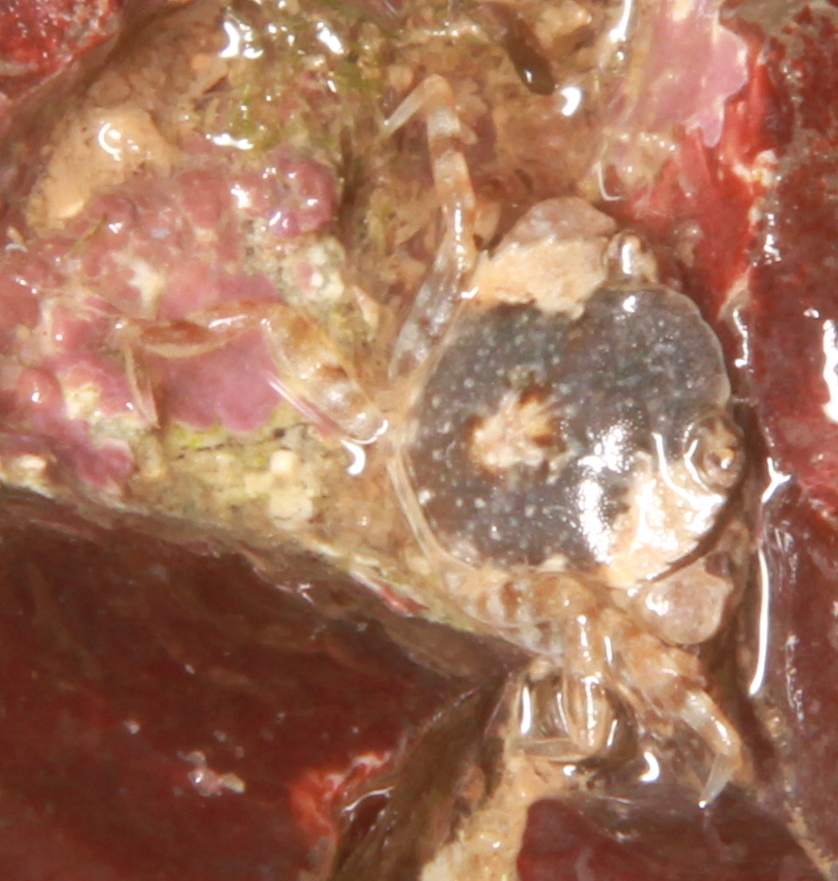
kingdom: Animalia
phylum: Arthropoda
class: Malacostraca
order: Decapoda
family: Carcinidae
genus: Carcinus
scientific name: Carcinus maenas
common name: European green crab
